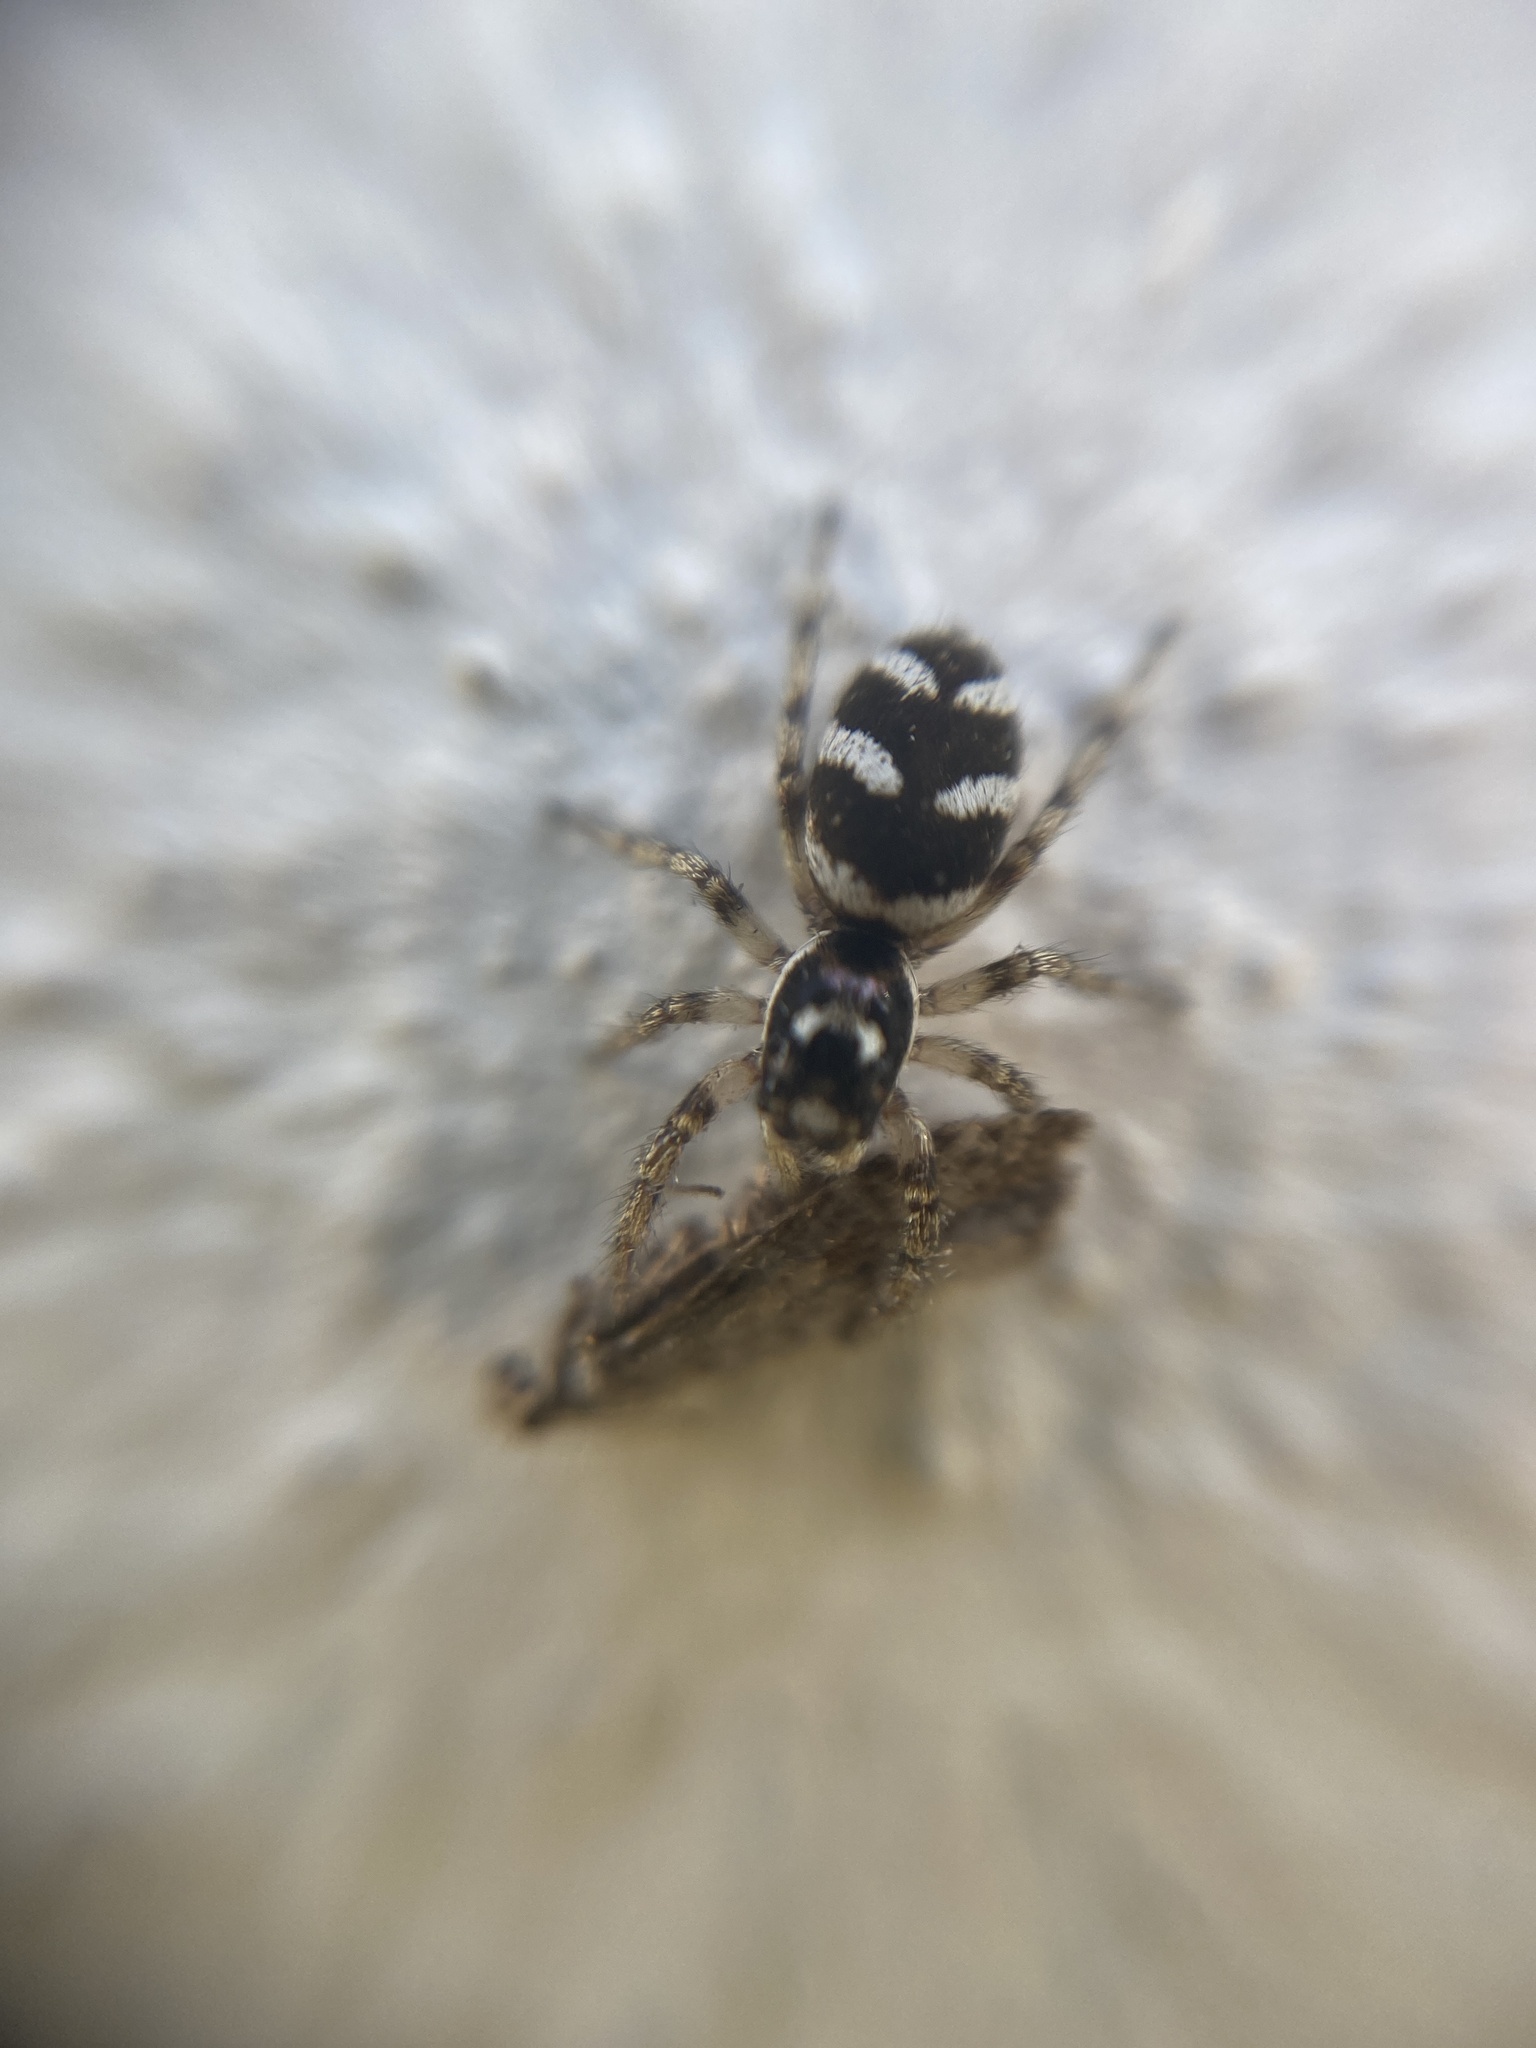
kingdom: Animalia
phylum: Arthropoda
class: Arachnida
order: Araneae
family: Salticidae
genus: Salticus
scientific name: Salticus scenicus
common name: Zebra jumper
